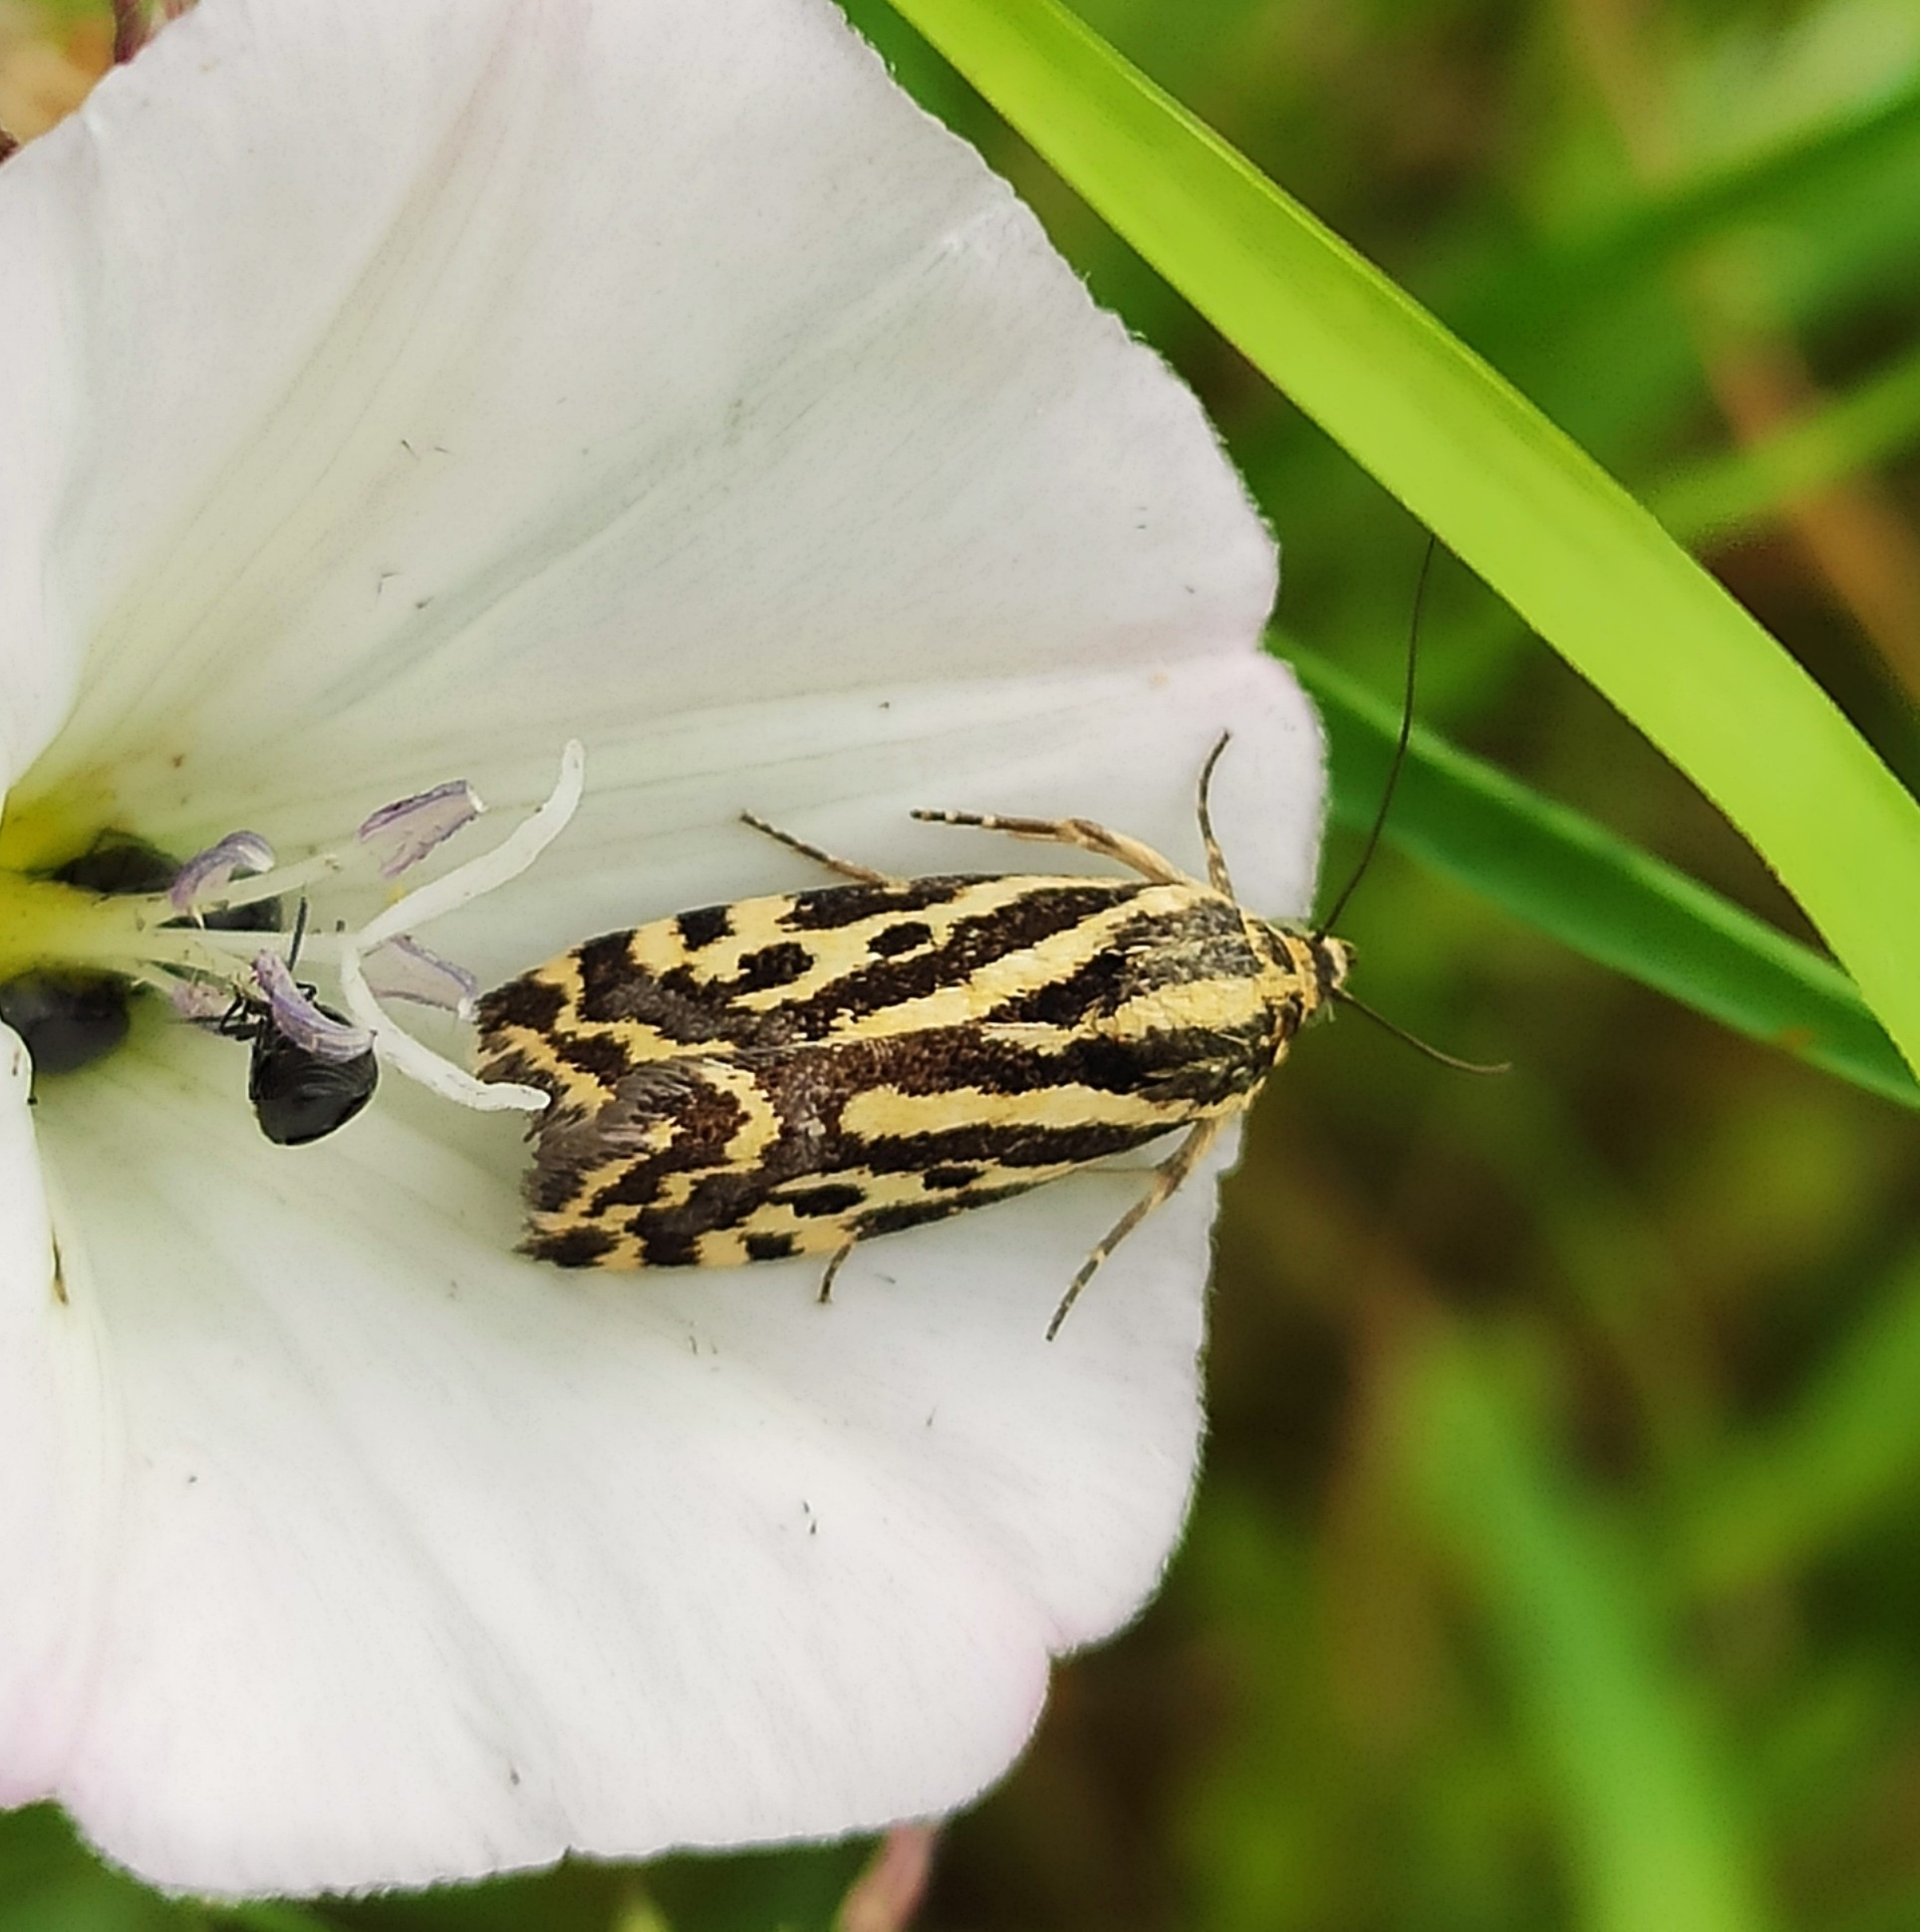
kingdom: Animalia
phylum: Arthropoda
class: Insecta
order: Lepidoptera
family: Noctuidae
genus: Acontia
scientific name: Acontia trabealis
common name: Spotted sulphur
